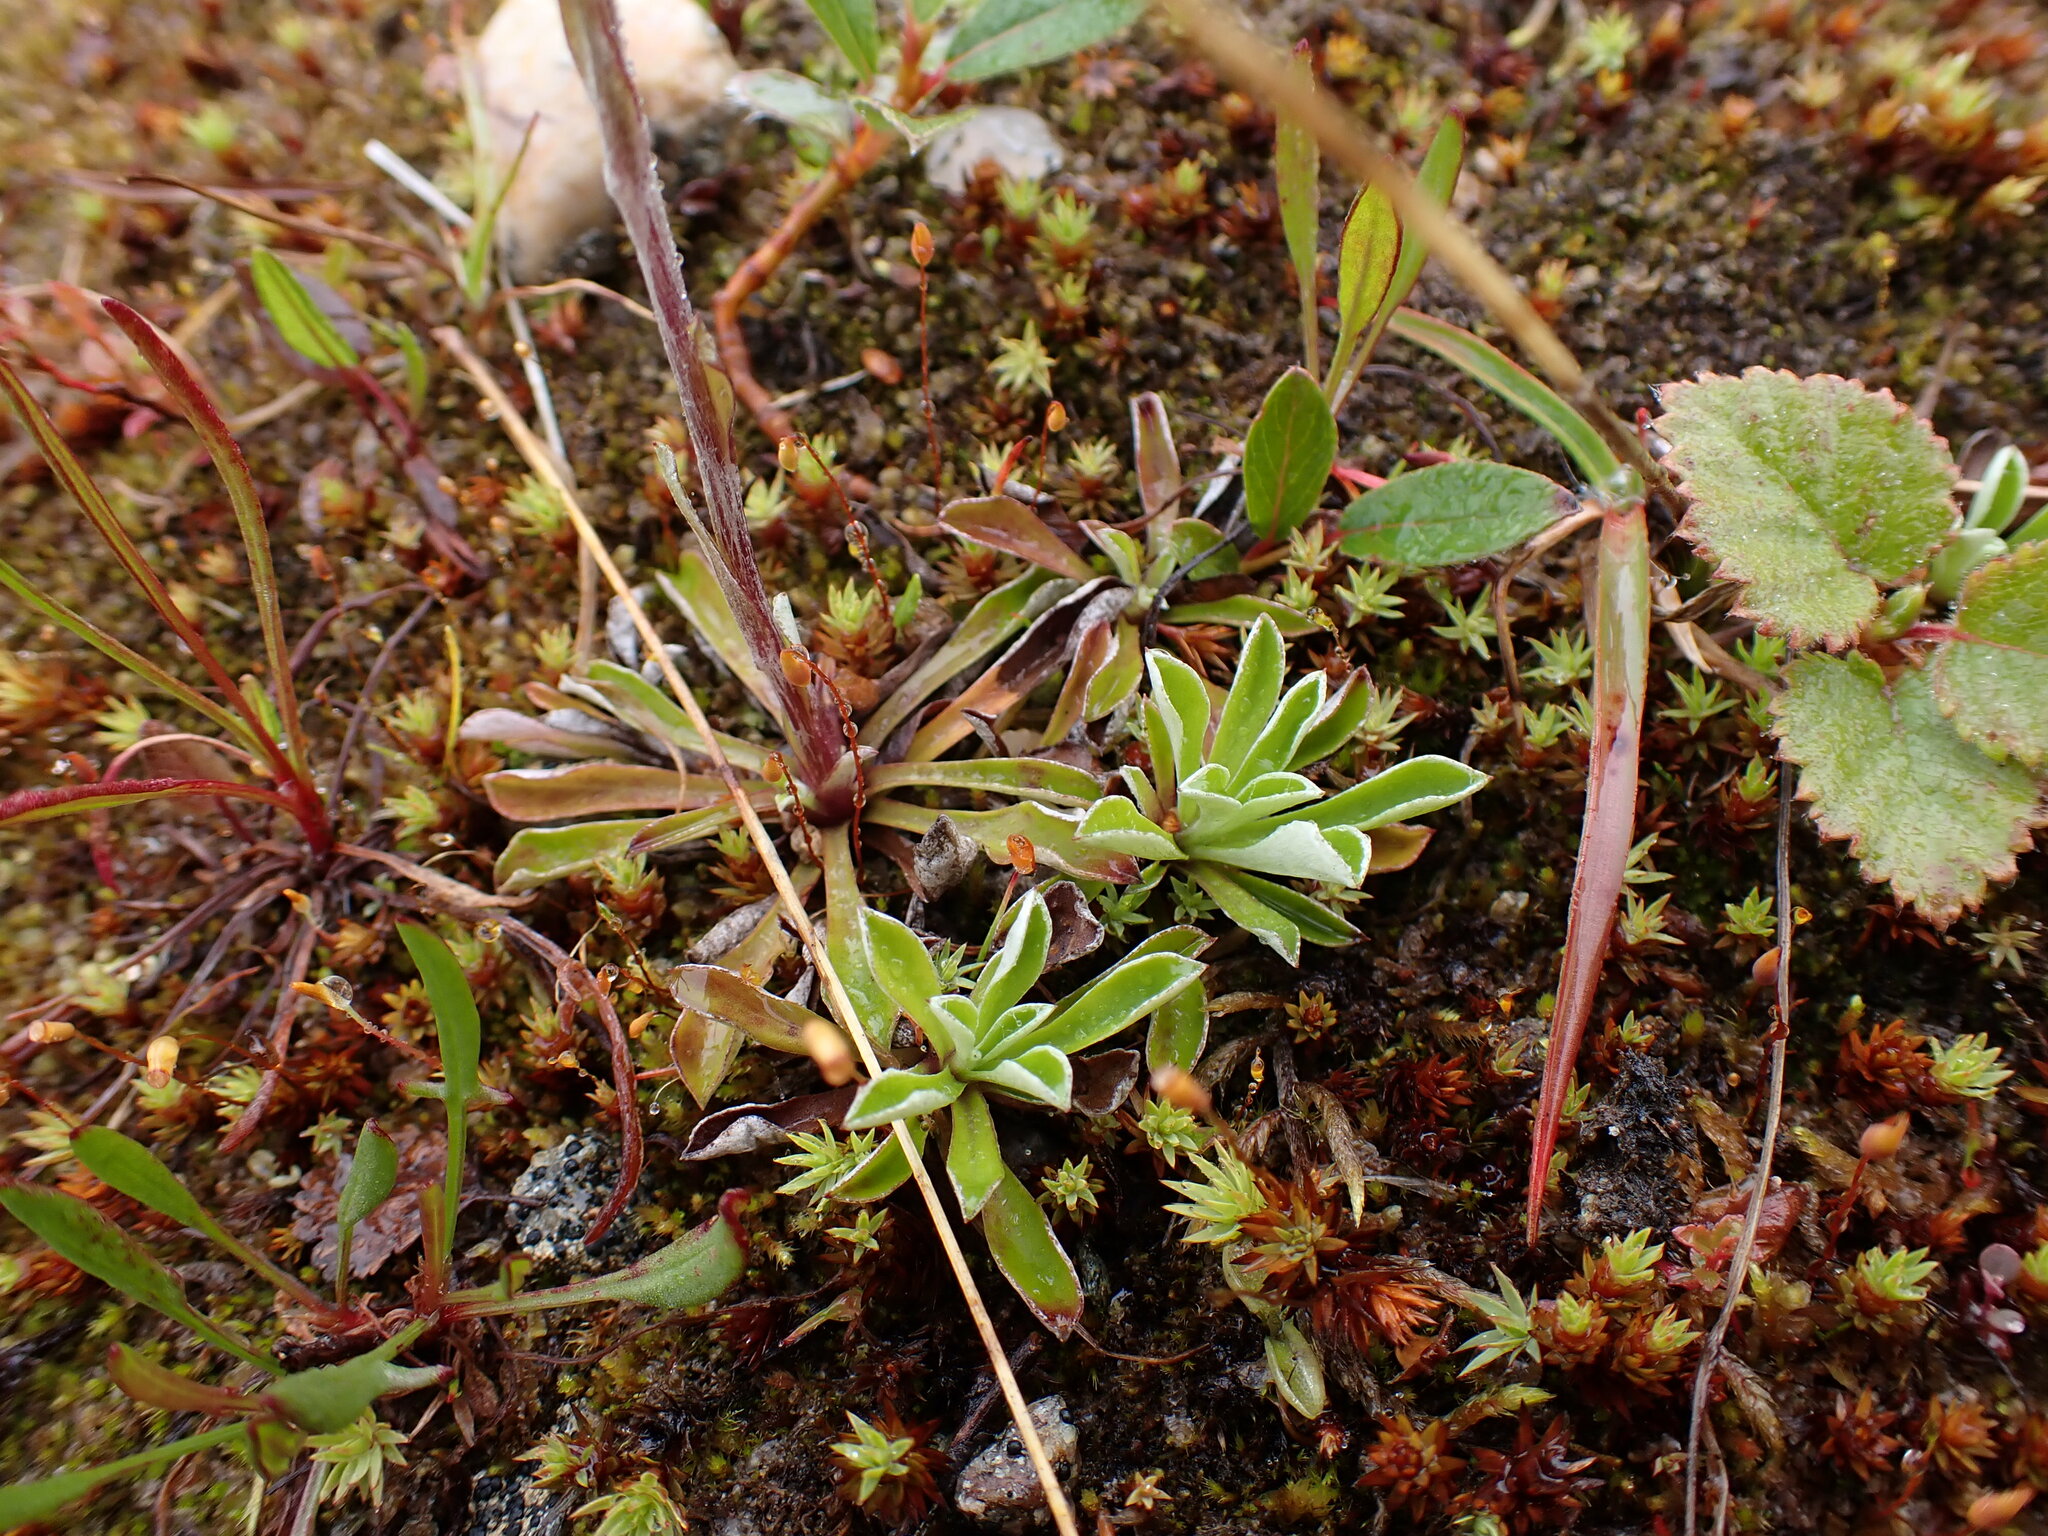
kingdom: Plantae
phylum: Tracheophyta
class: Magnoliopsida
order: Asterales
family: Asteraceae
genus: Antennaria
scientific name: Antennaria dioica
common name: Mountain everlasting
